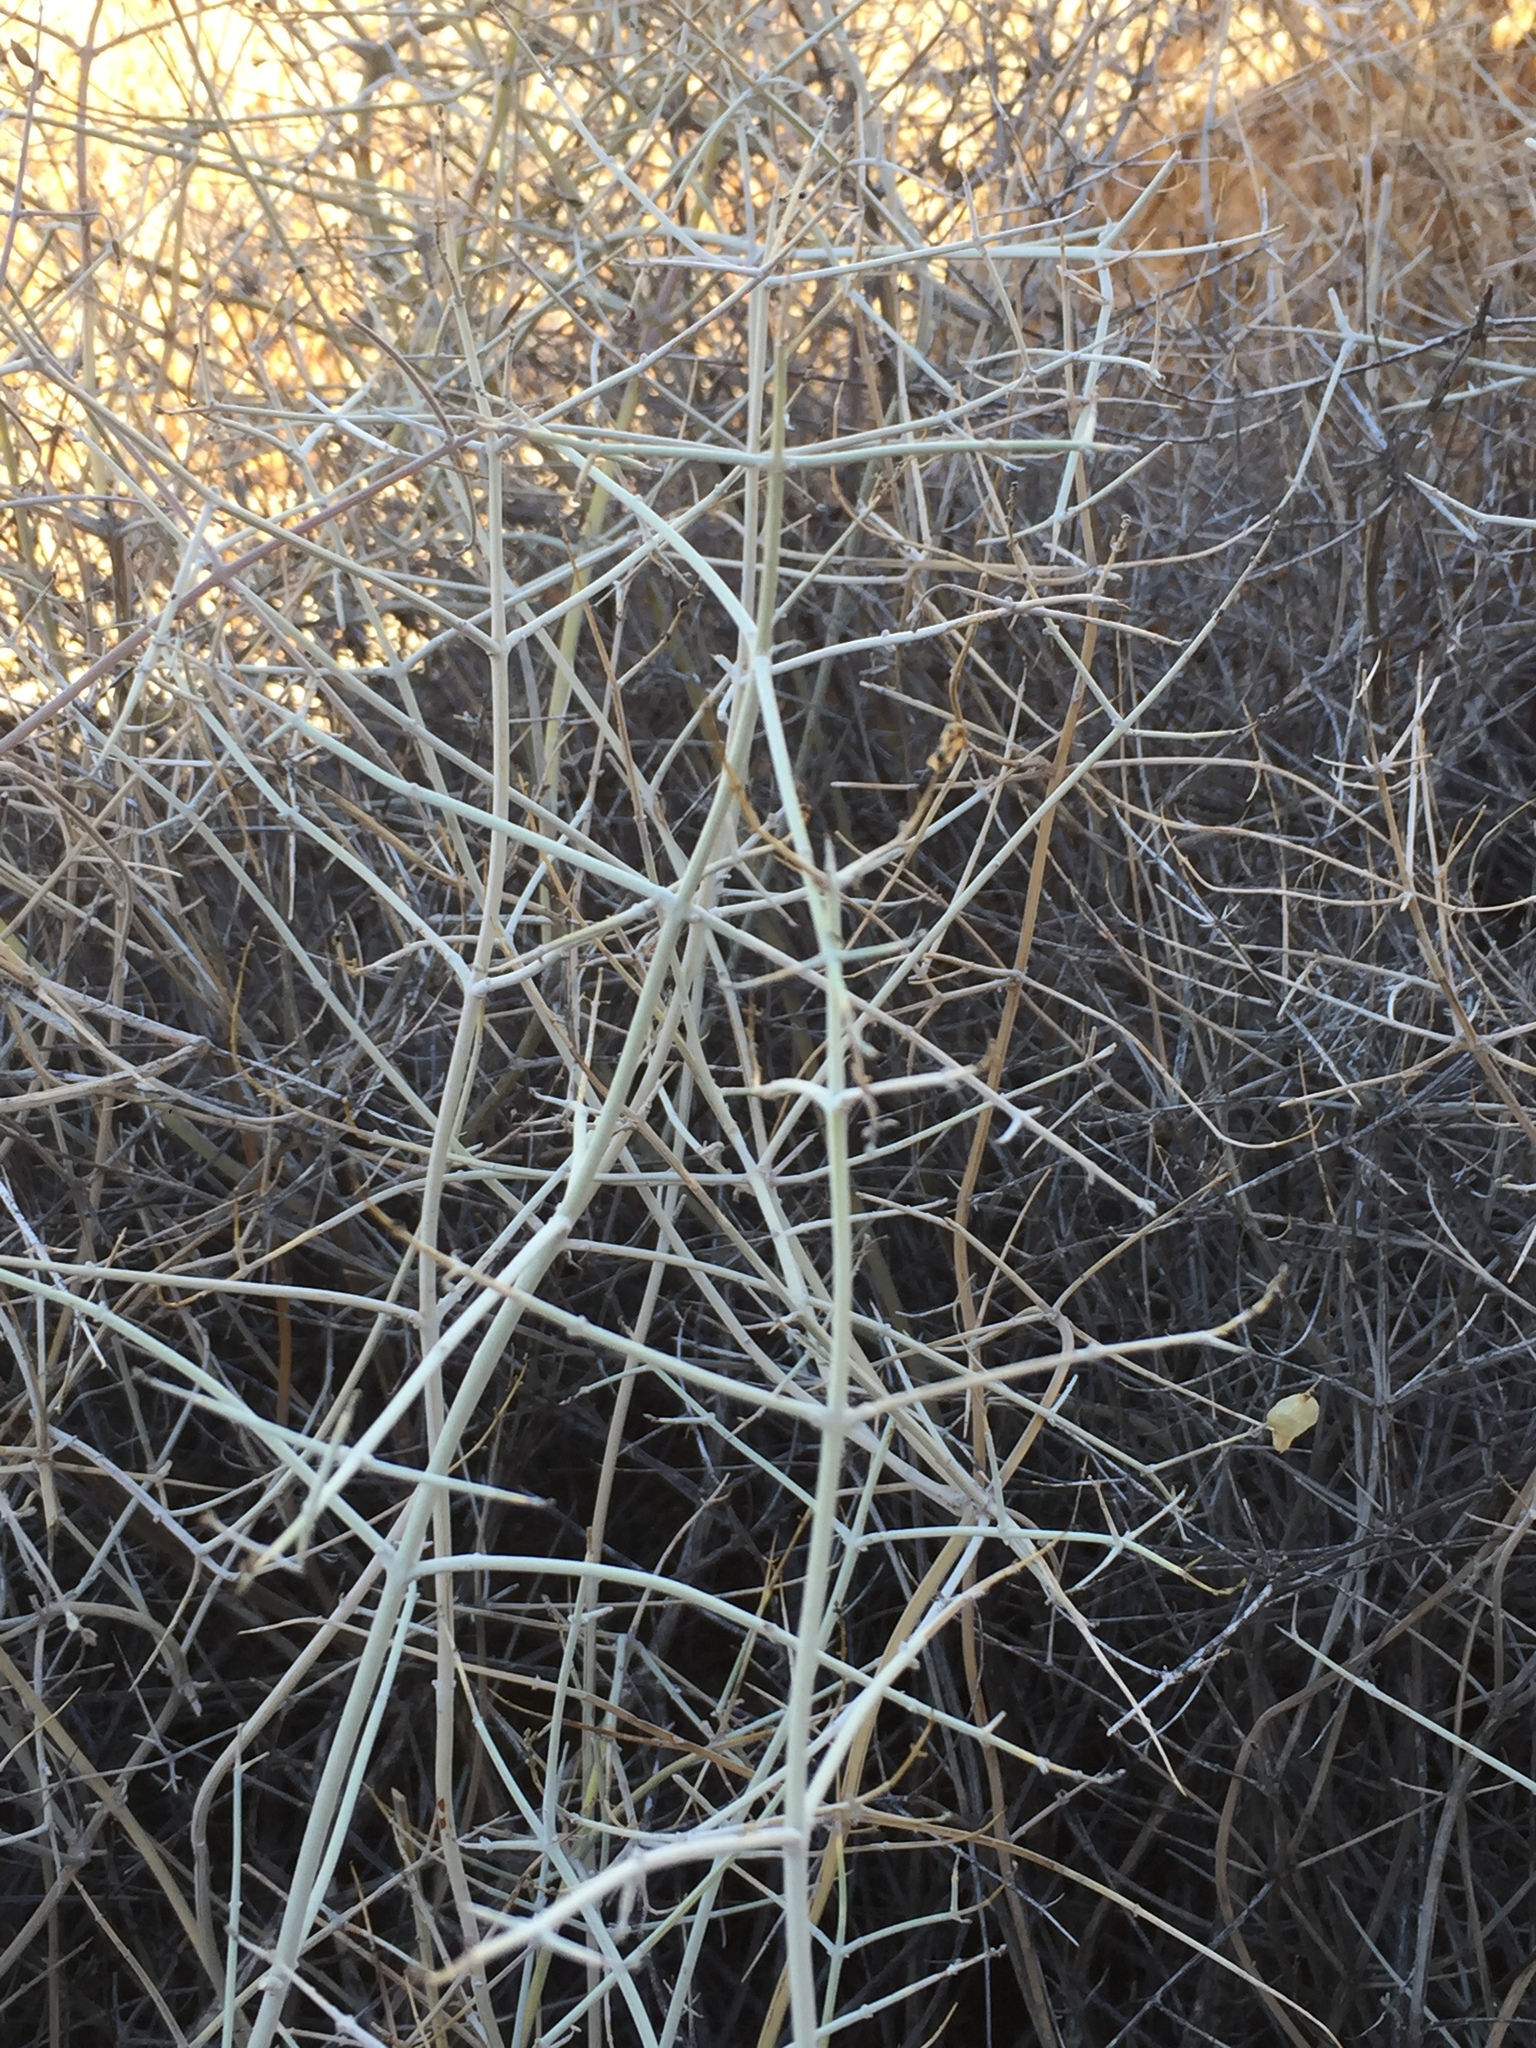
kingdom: Plantae
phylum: Tracheophyta
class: Magnoliopsida
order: Lamiales
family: Lamiaceae
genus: Scutellaria
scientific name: Scutellaria mexicana
